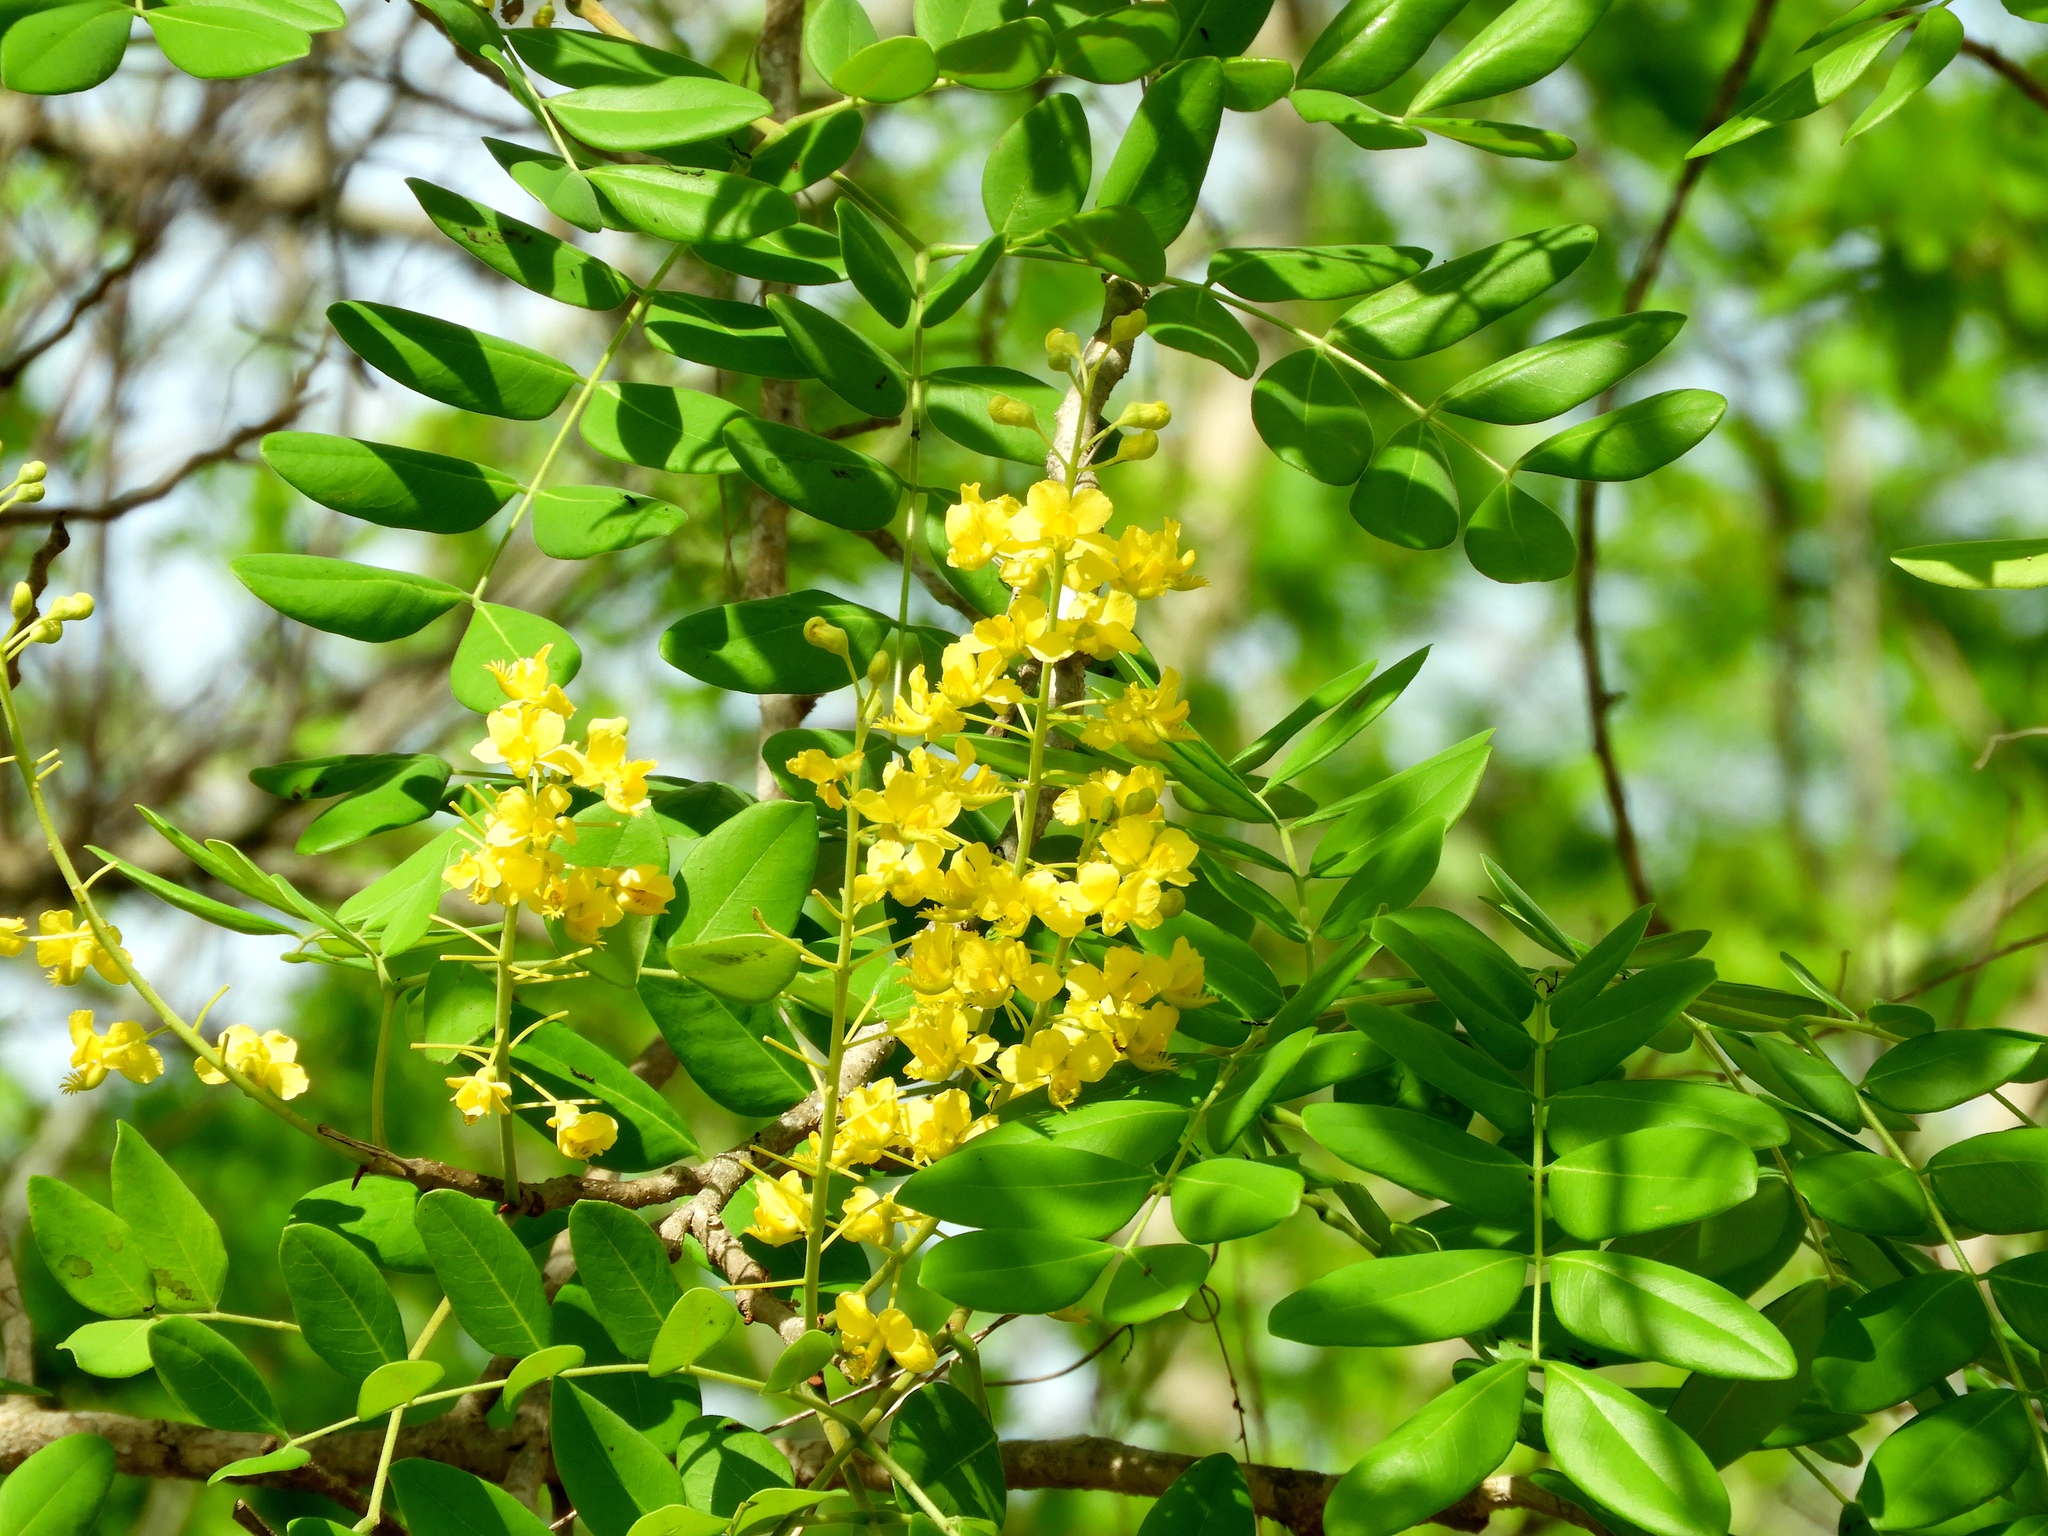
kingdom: Plantae
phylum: Tracheophyta
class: Magnoliopsida
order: Fabales
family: Fabaceae
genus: Coulteria
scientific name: Coulteria platyloba
